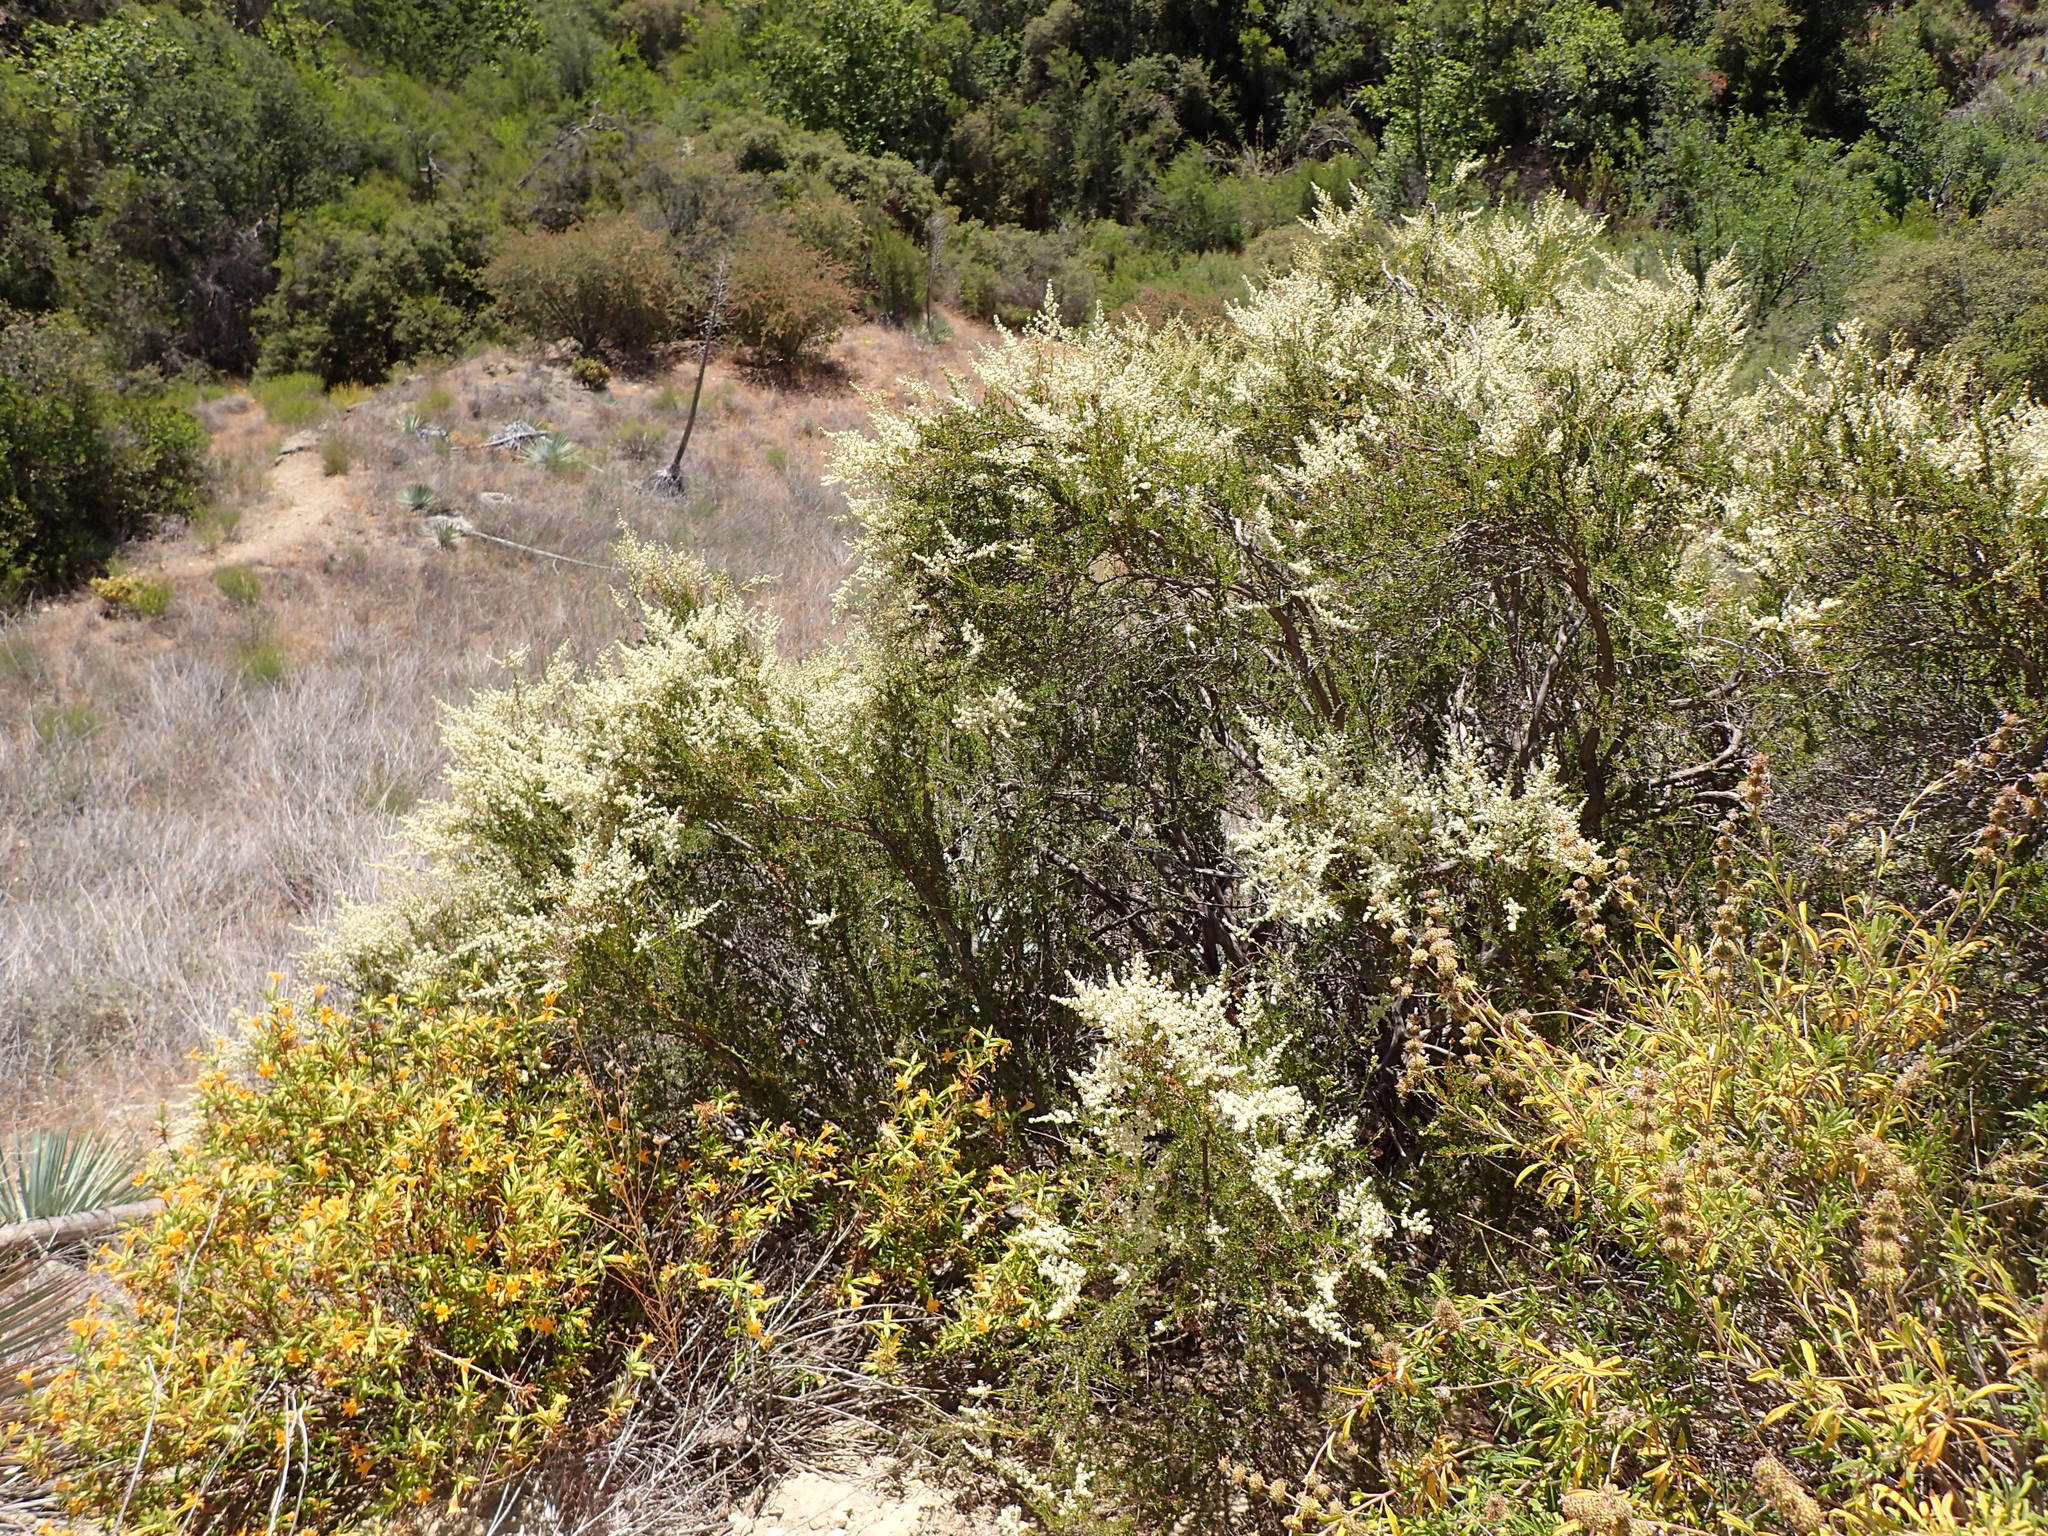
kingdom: Plantae
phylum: Tracheophyta
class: Magnoliopsida
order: Rosales
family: Rosaceae
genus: Adenostoma
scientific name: Adenostoma fasciculatum
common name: Chamise
